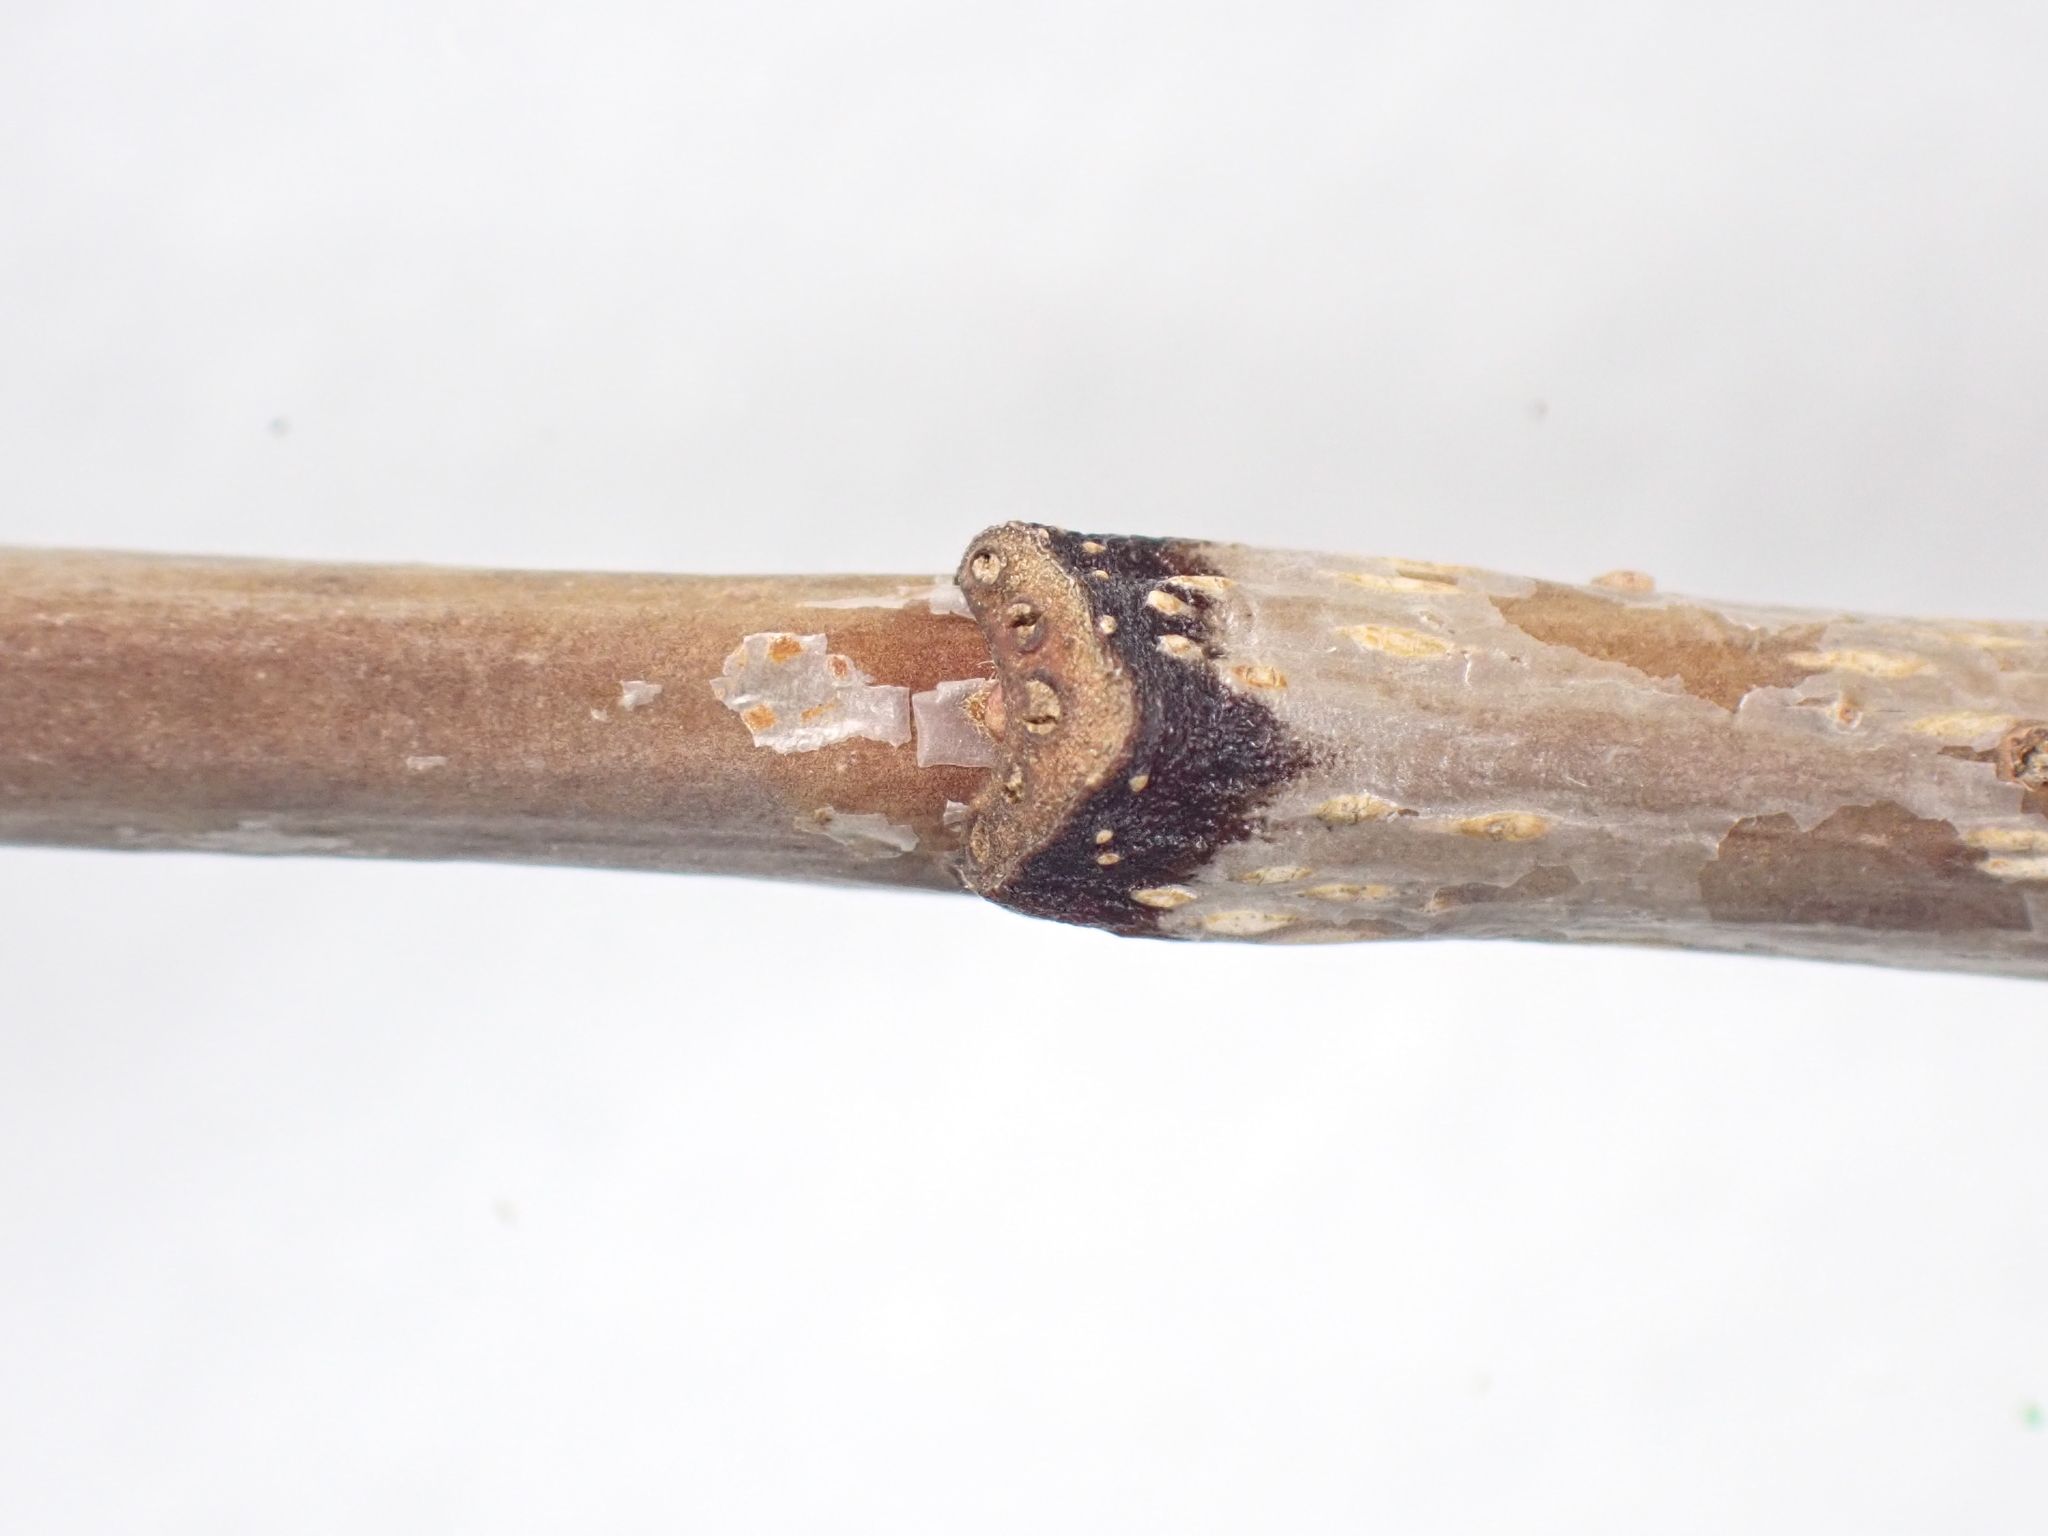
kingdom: Plantae
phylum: Tracheophyta
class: Magnoliopsida
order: Rosales
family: Rosaceae
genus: Sorbus
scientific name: Sorbus americana
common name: American mountain-ash
